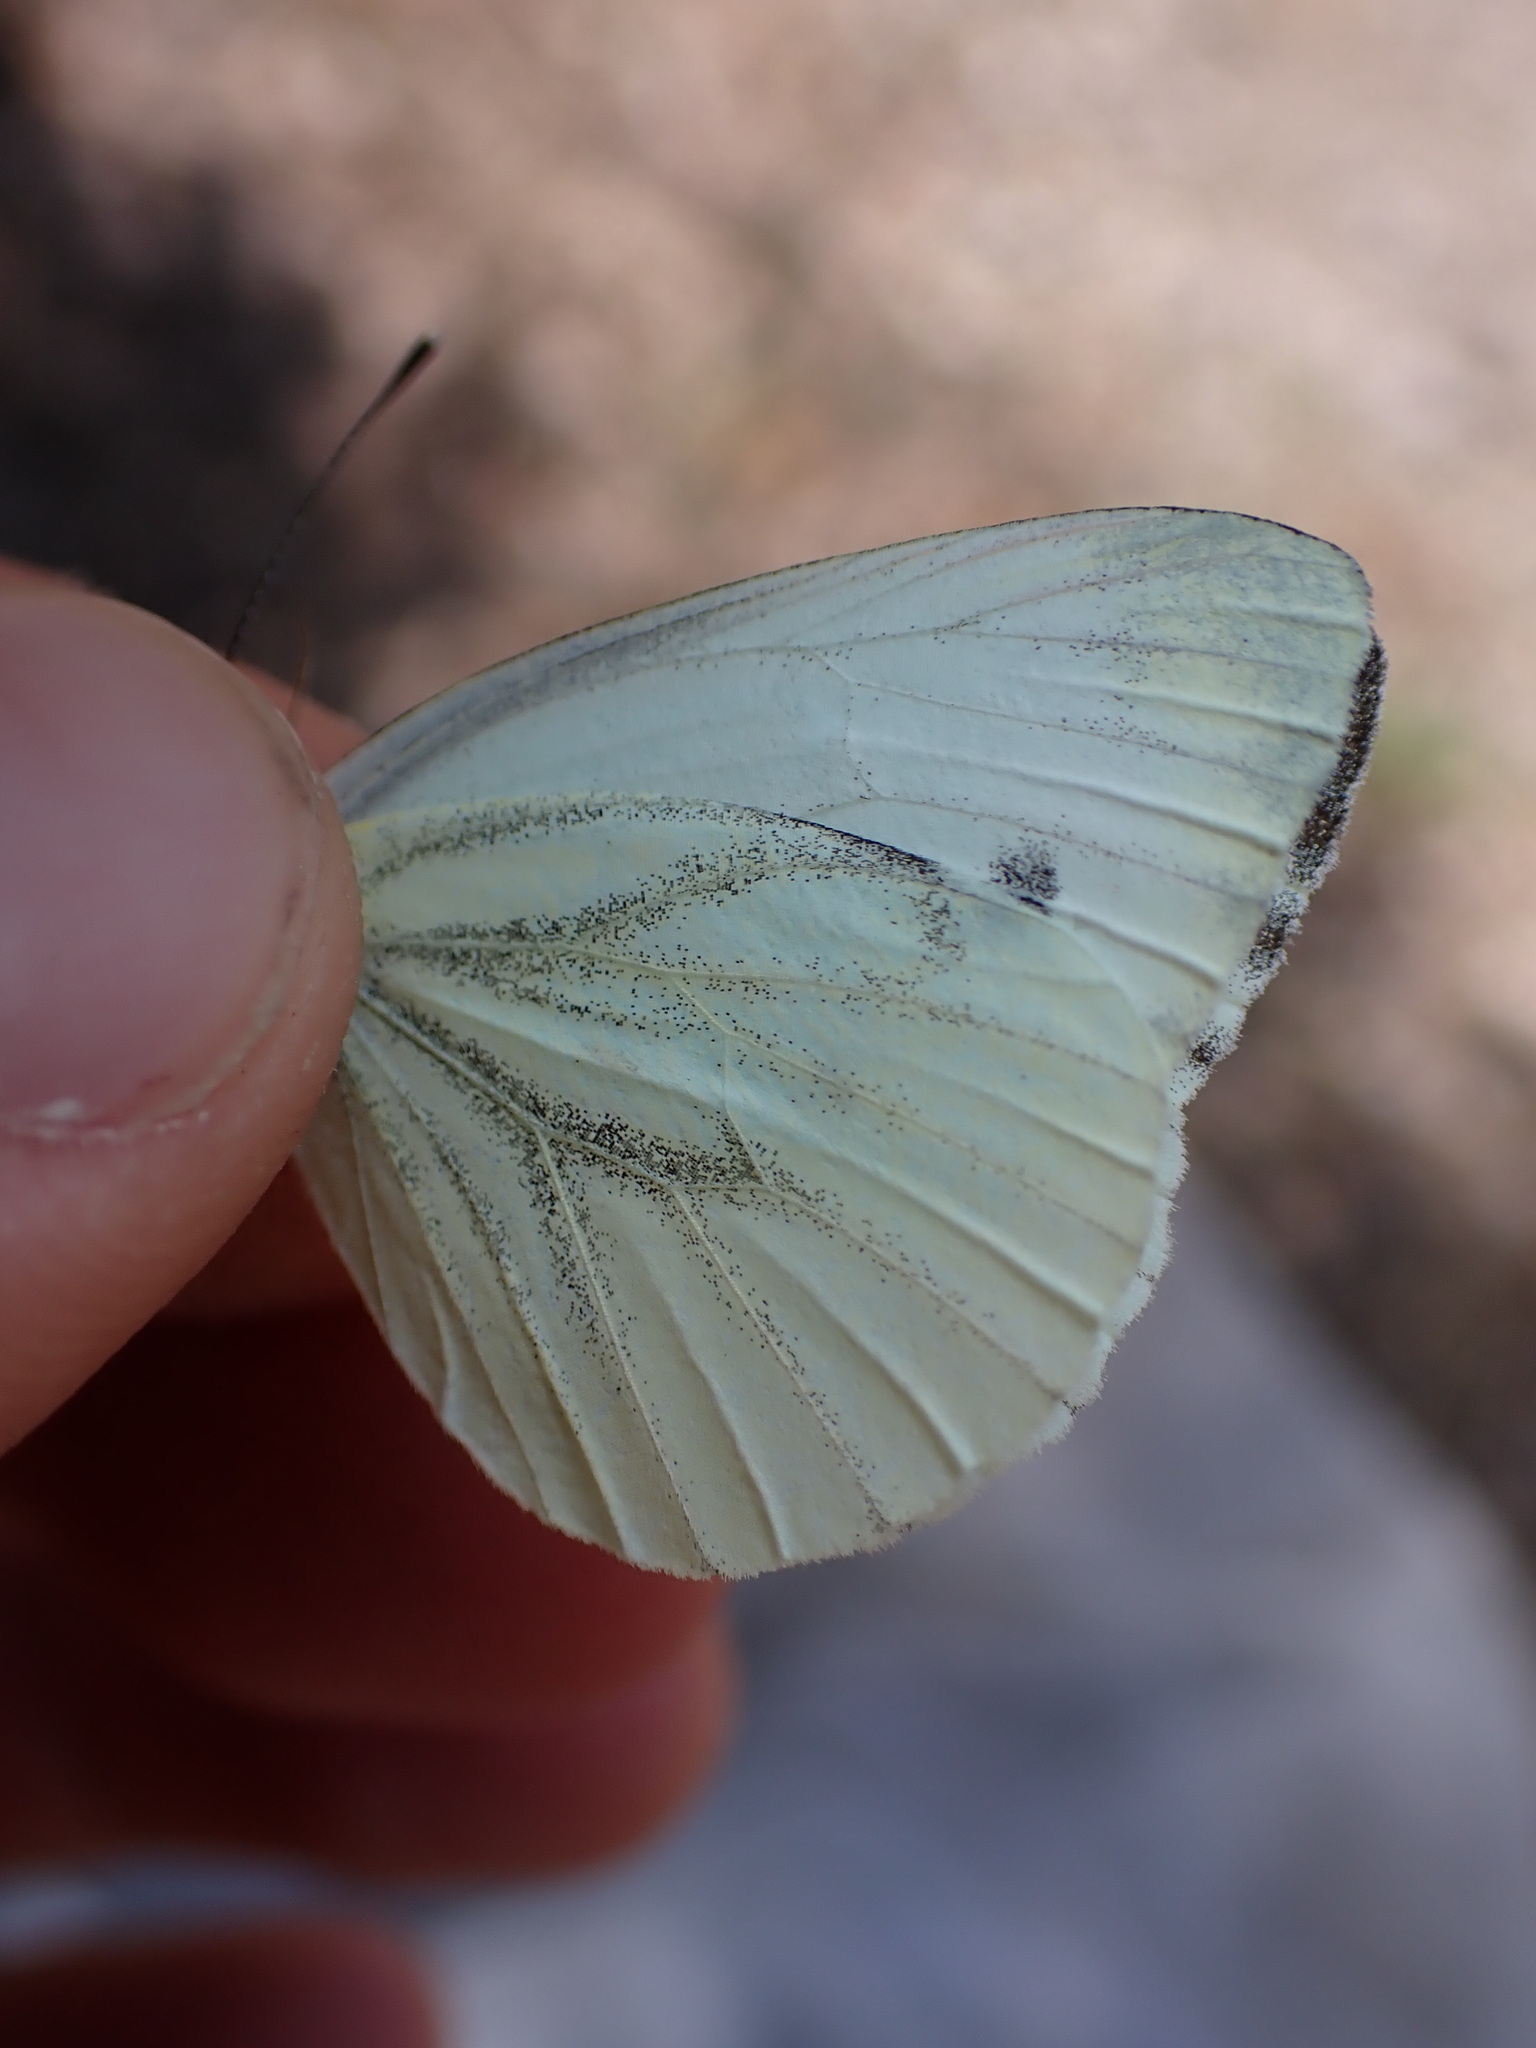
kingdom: Animalia
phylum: Arthropoda
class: Insecta
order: Lepidoptera
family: Pieridae
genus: Pieris
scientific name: Pieris napi
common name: Green-veined white
